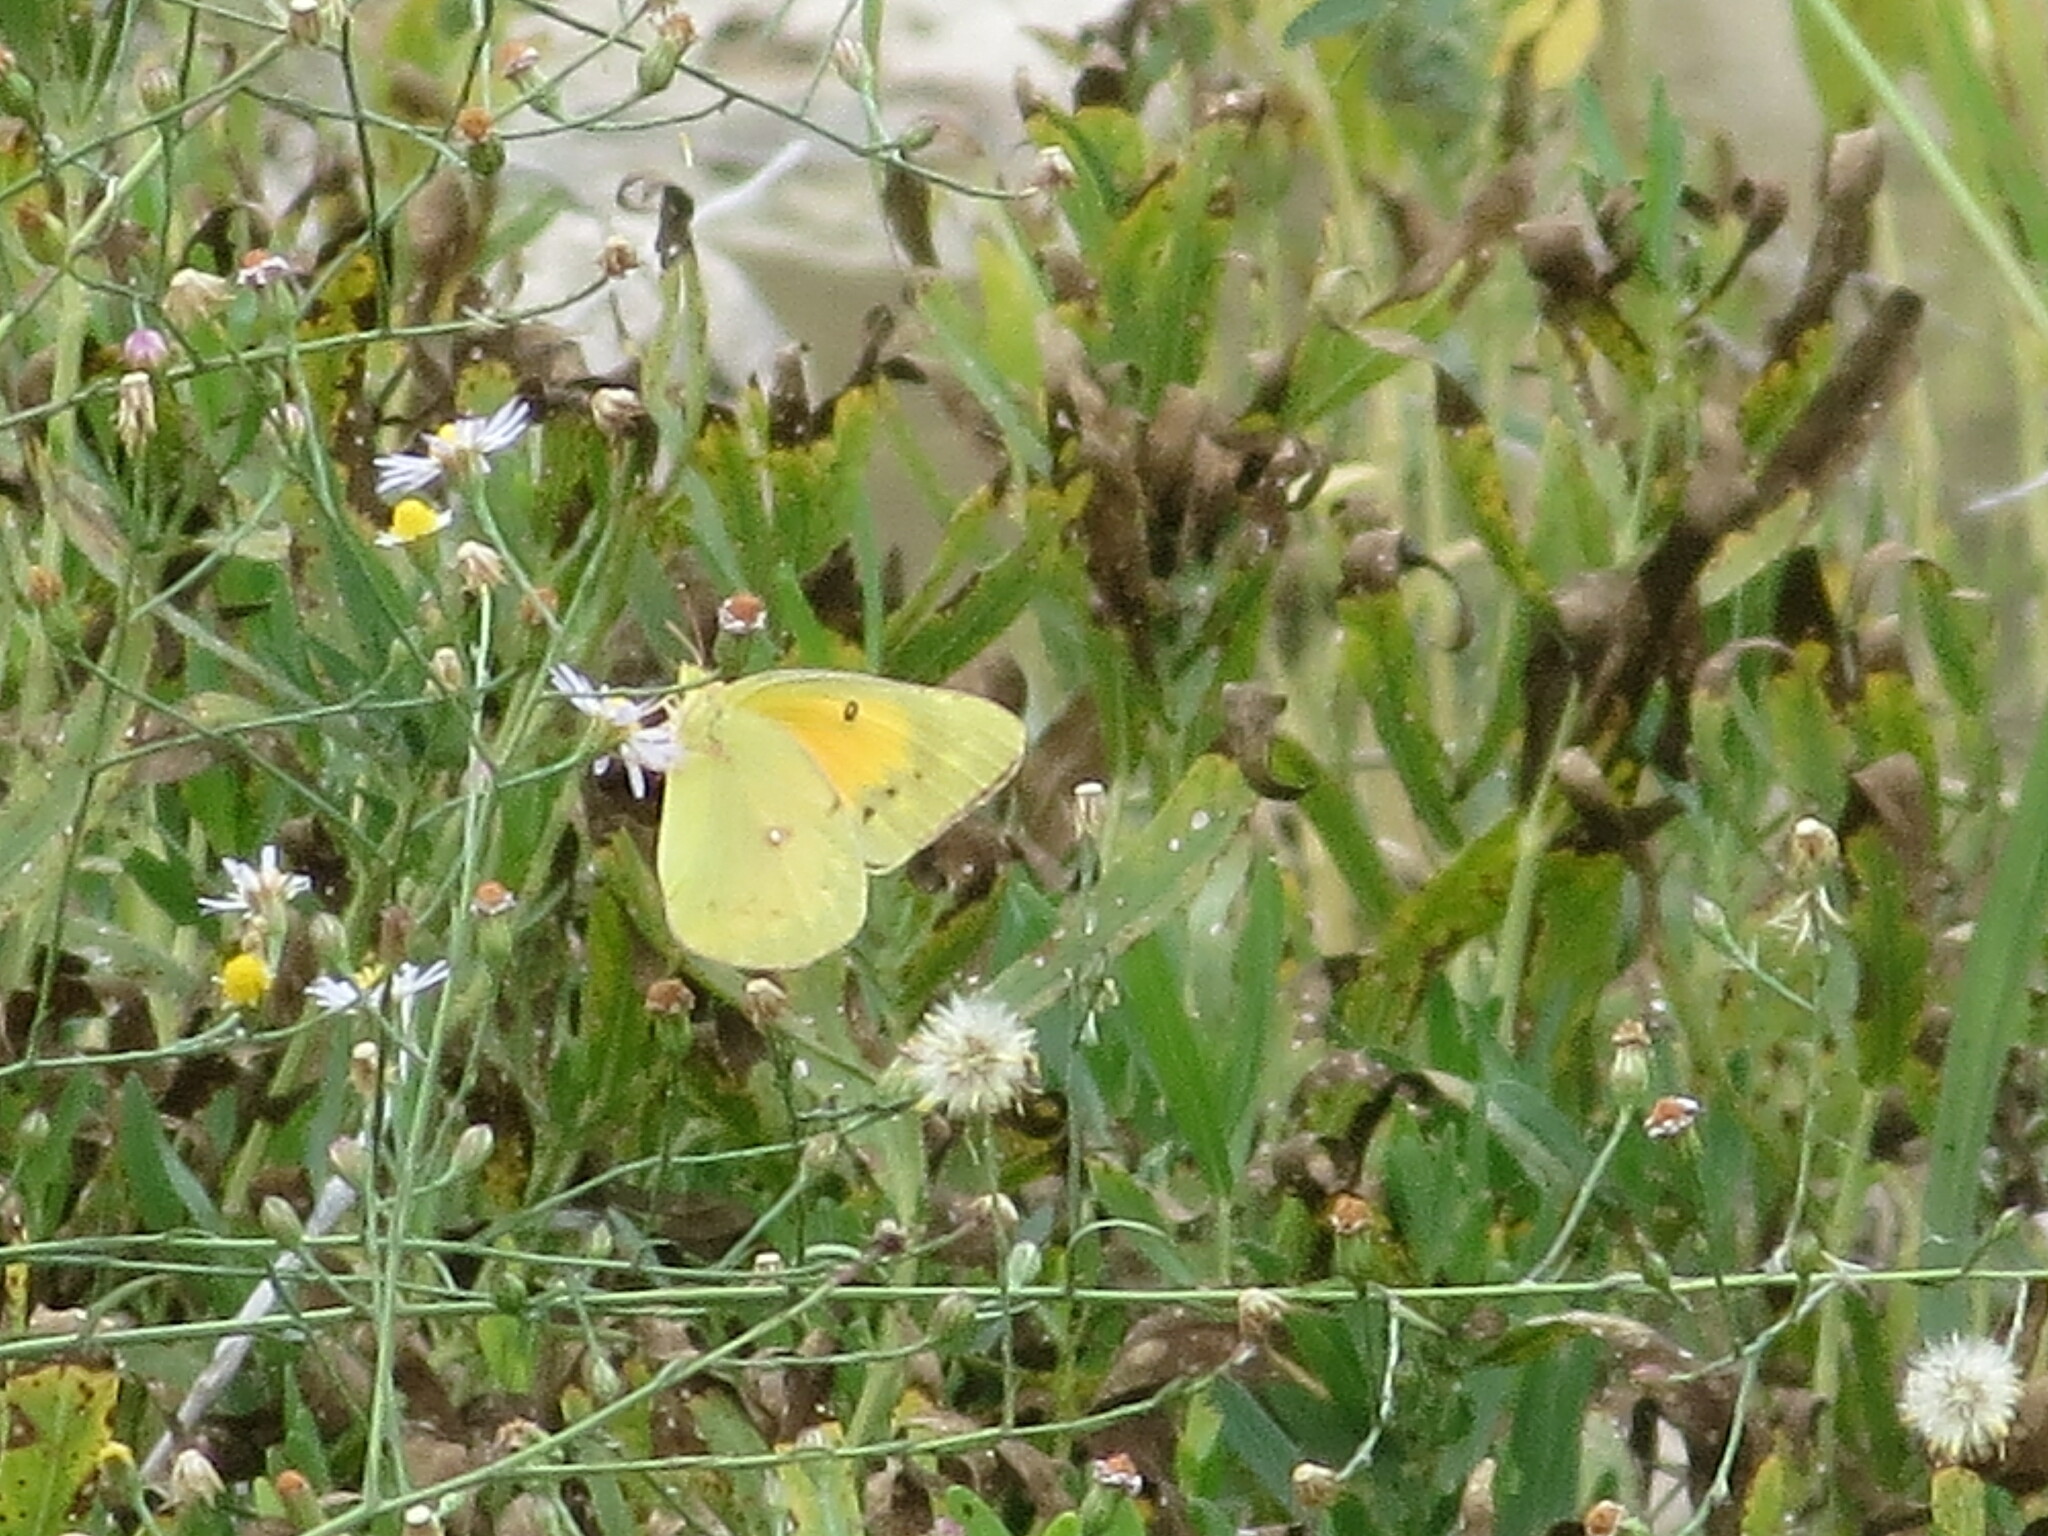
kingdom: Animalia
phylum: Arthropoda
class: Insecta
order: Lepidoptera
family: Pieridae
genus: Colias
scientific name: Colias eurytheme
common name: Alfalfa butterfly
